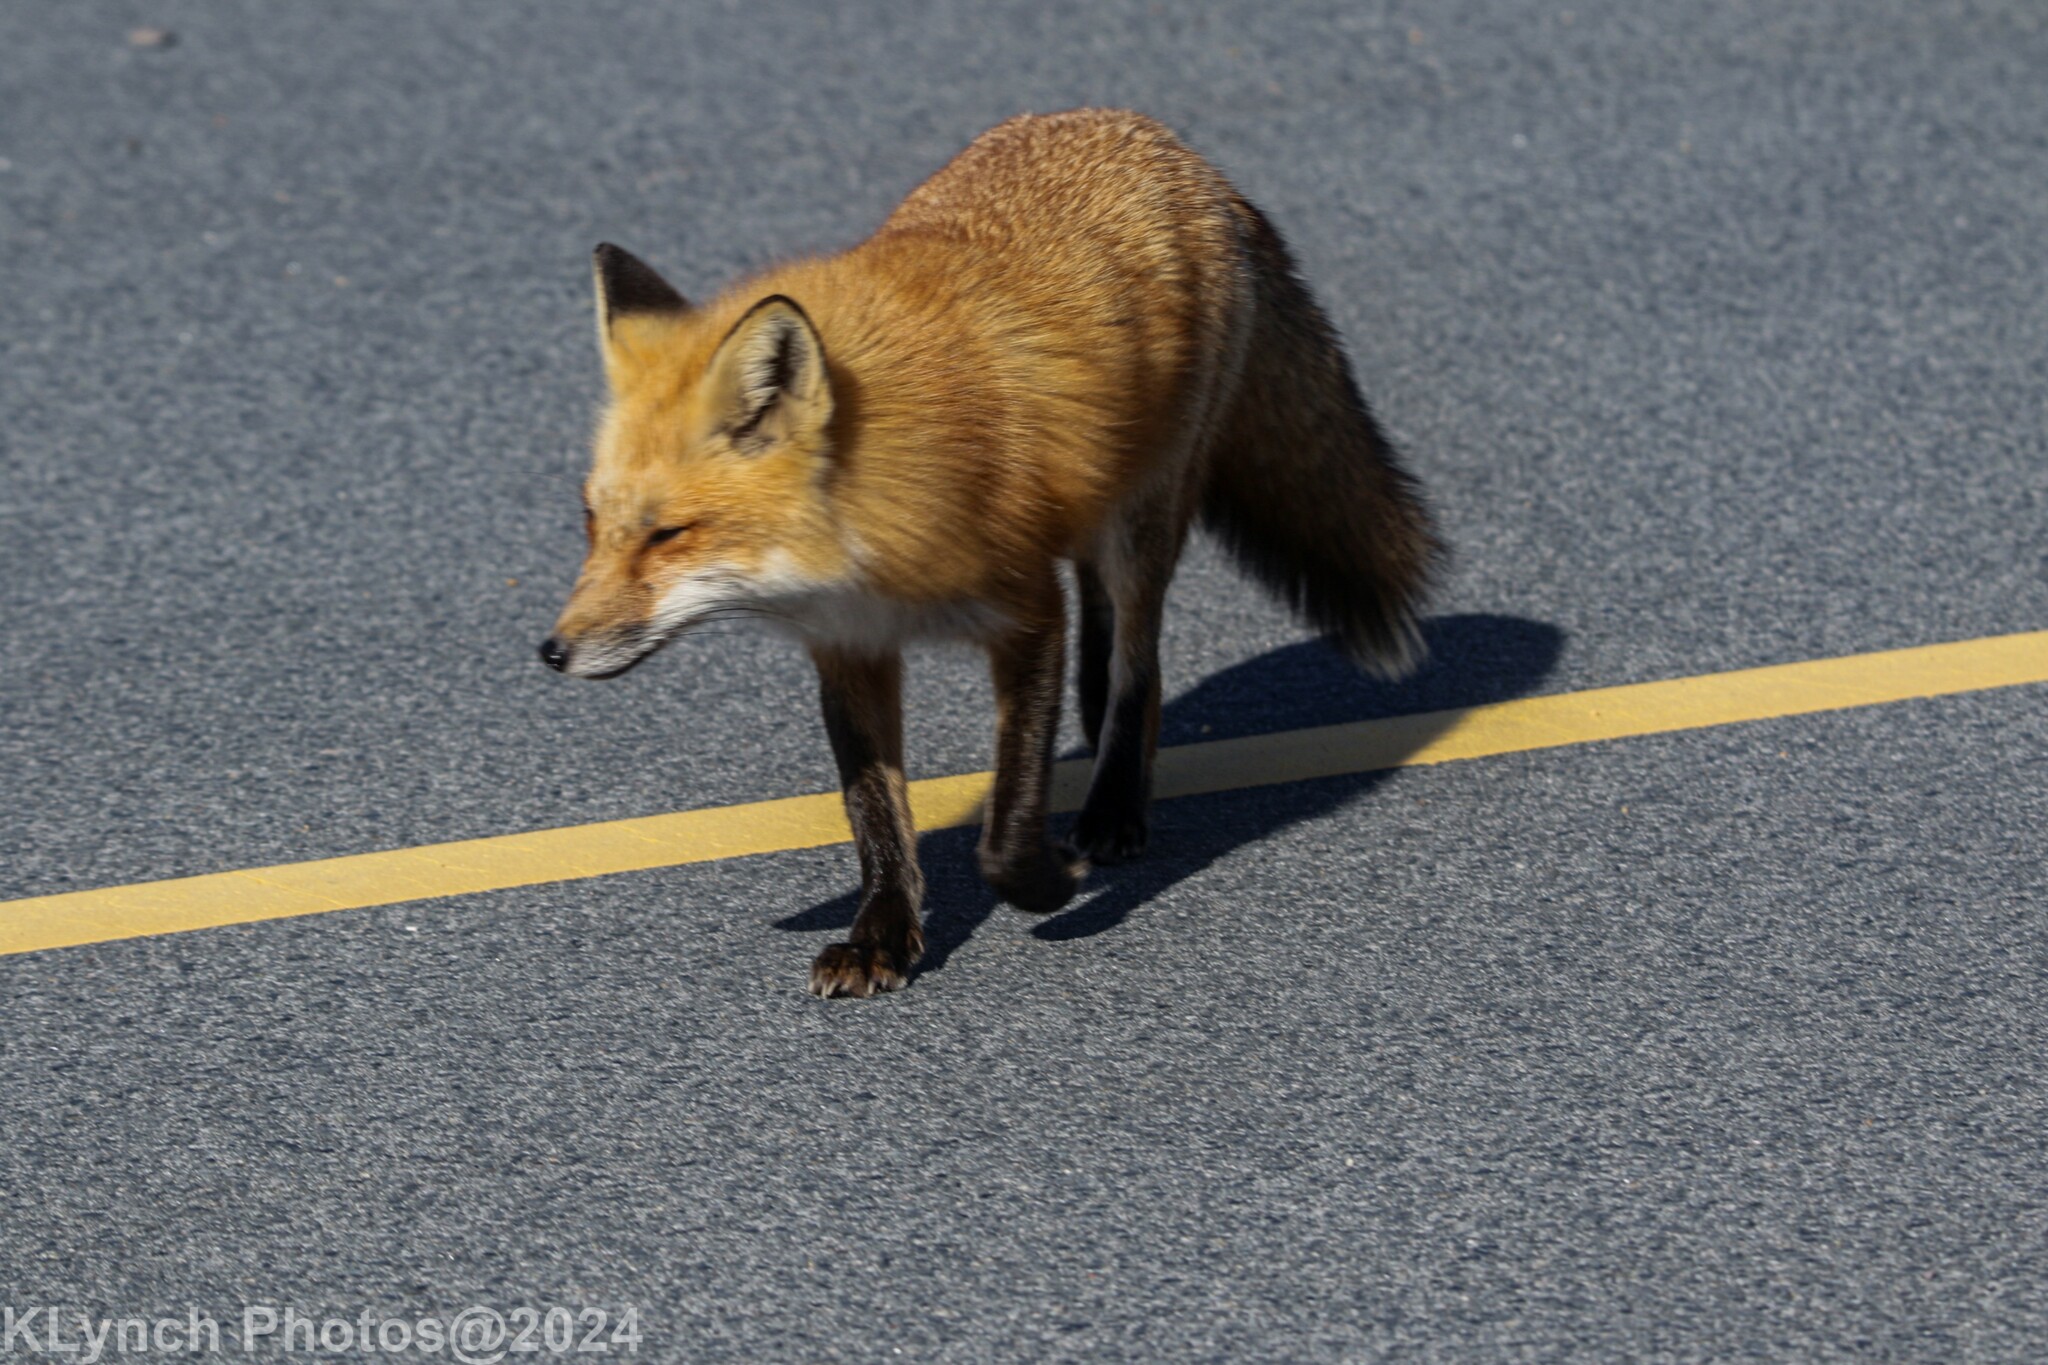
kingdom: Animalia
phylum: Chordata
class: Mammalia
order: Carnivora
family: Canidae
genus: Vulpes
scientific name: Vulpes vulpes
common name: Red fox
